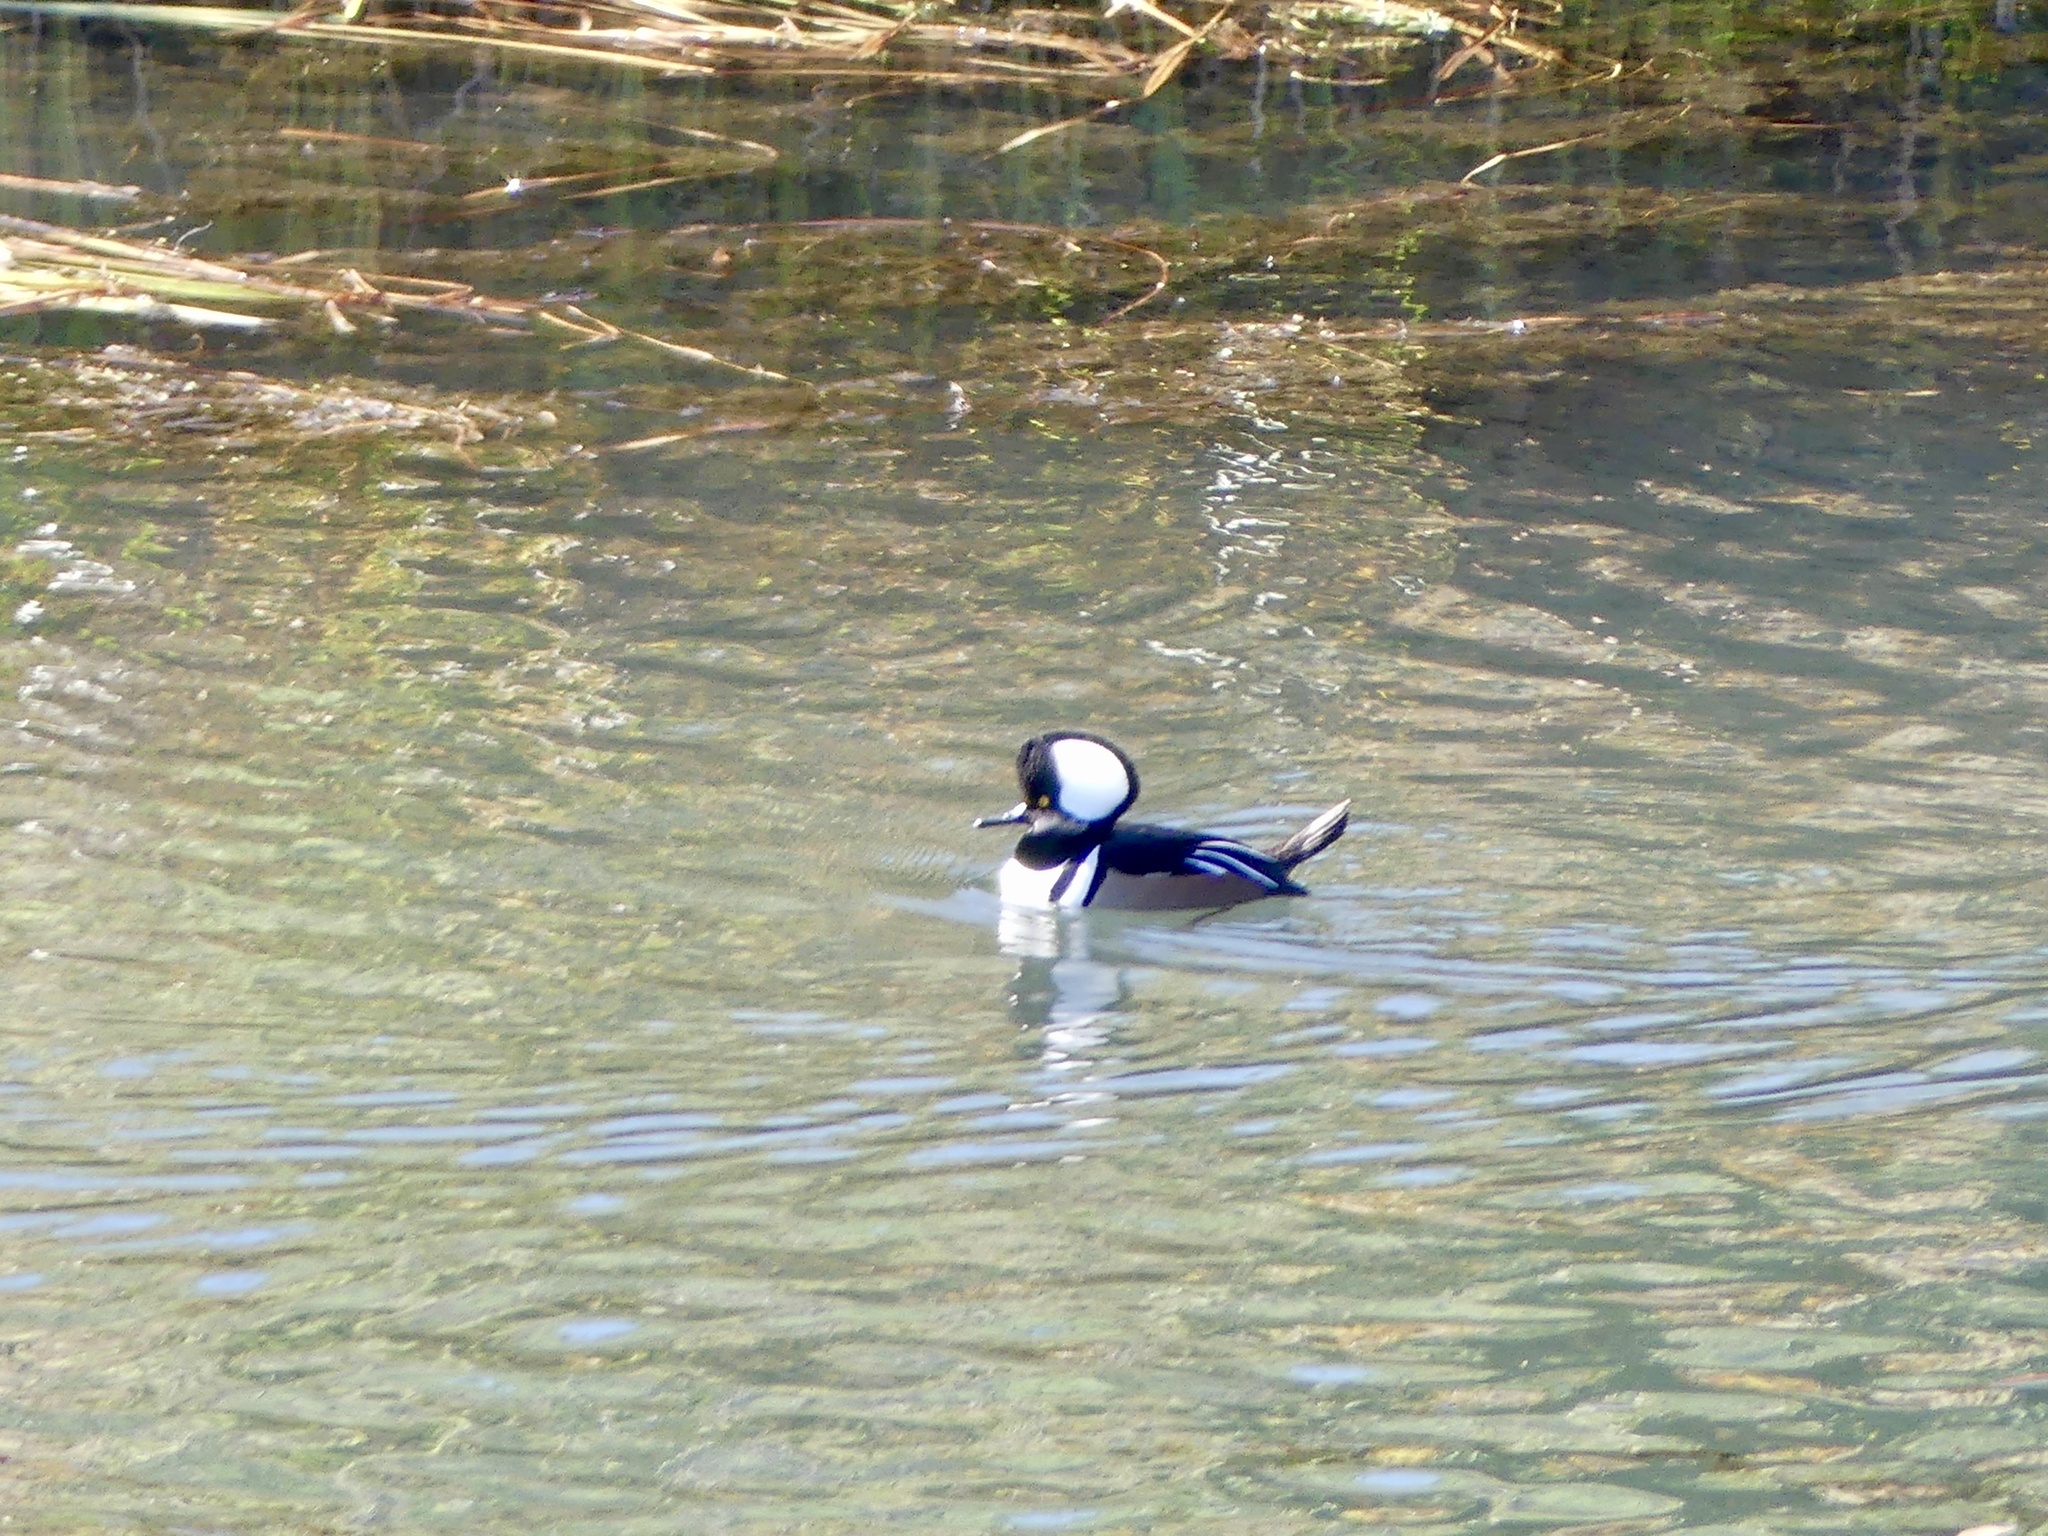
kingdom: Animalia
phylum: Chordata
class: Aves
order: Anseriformes
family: Anatidae
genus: Lophodytes
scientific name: Lophodytes cucullatus
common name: Hooded merganser
